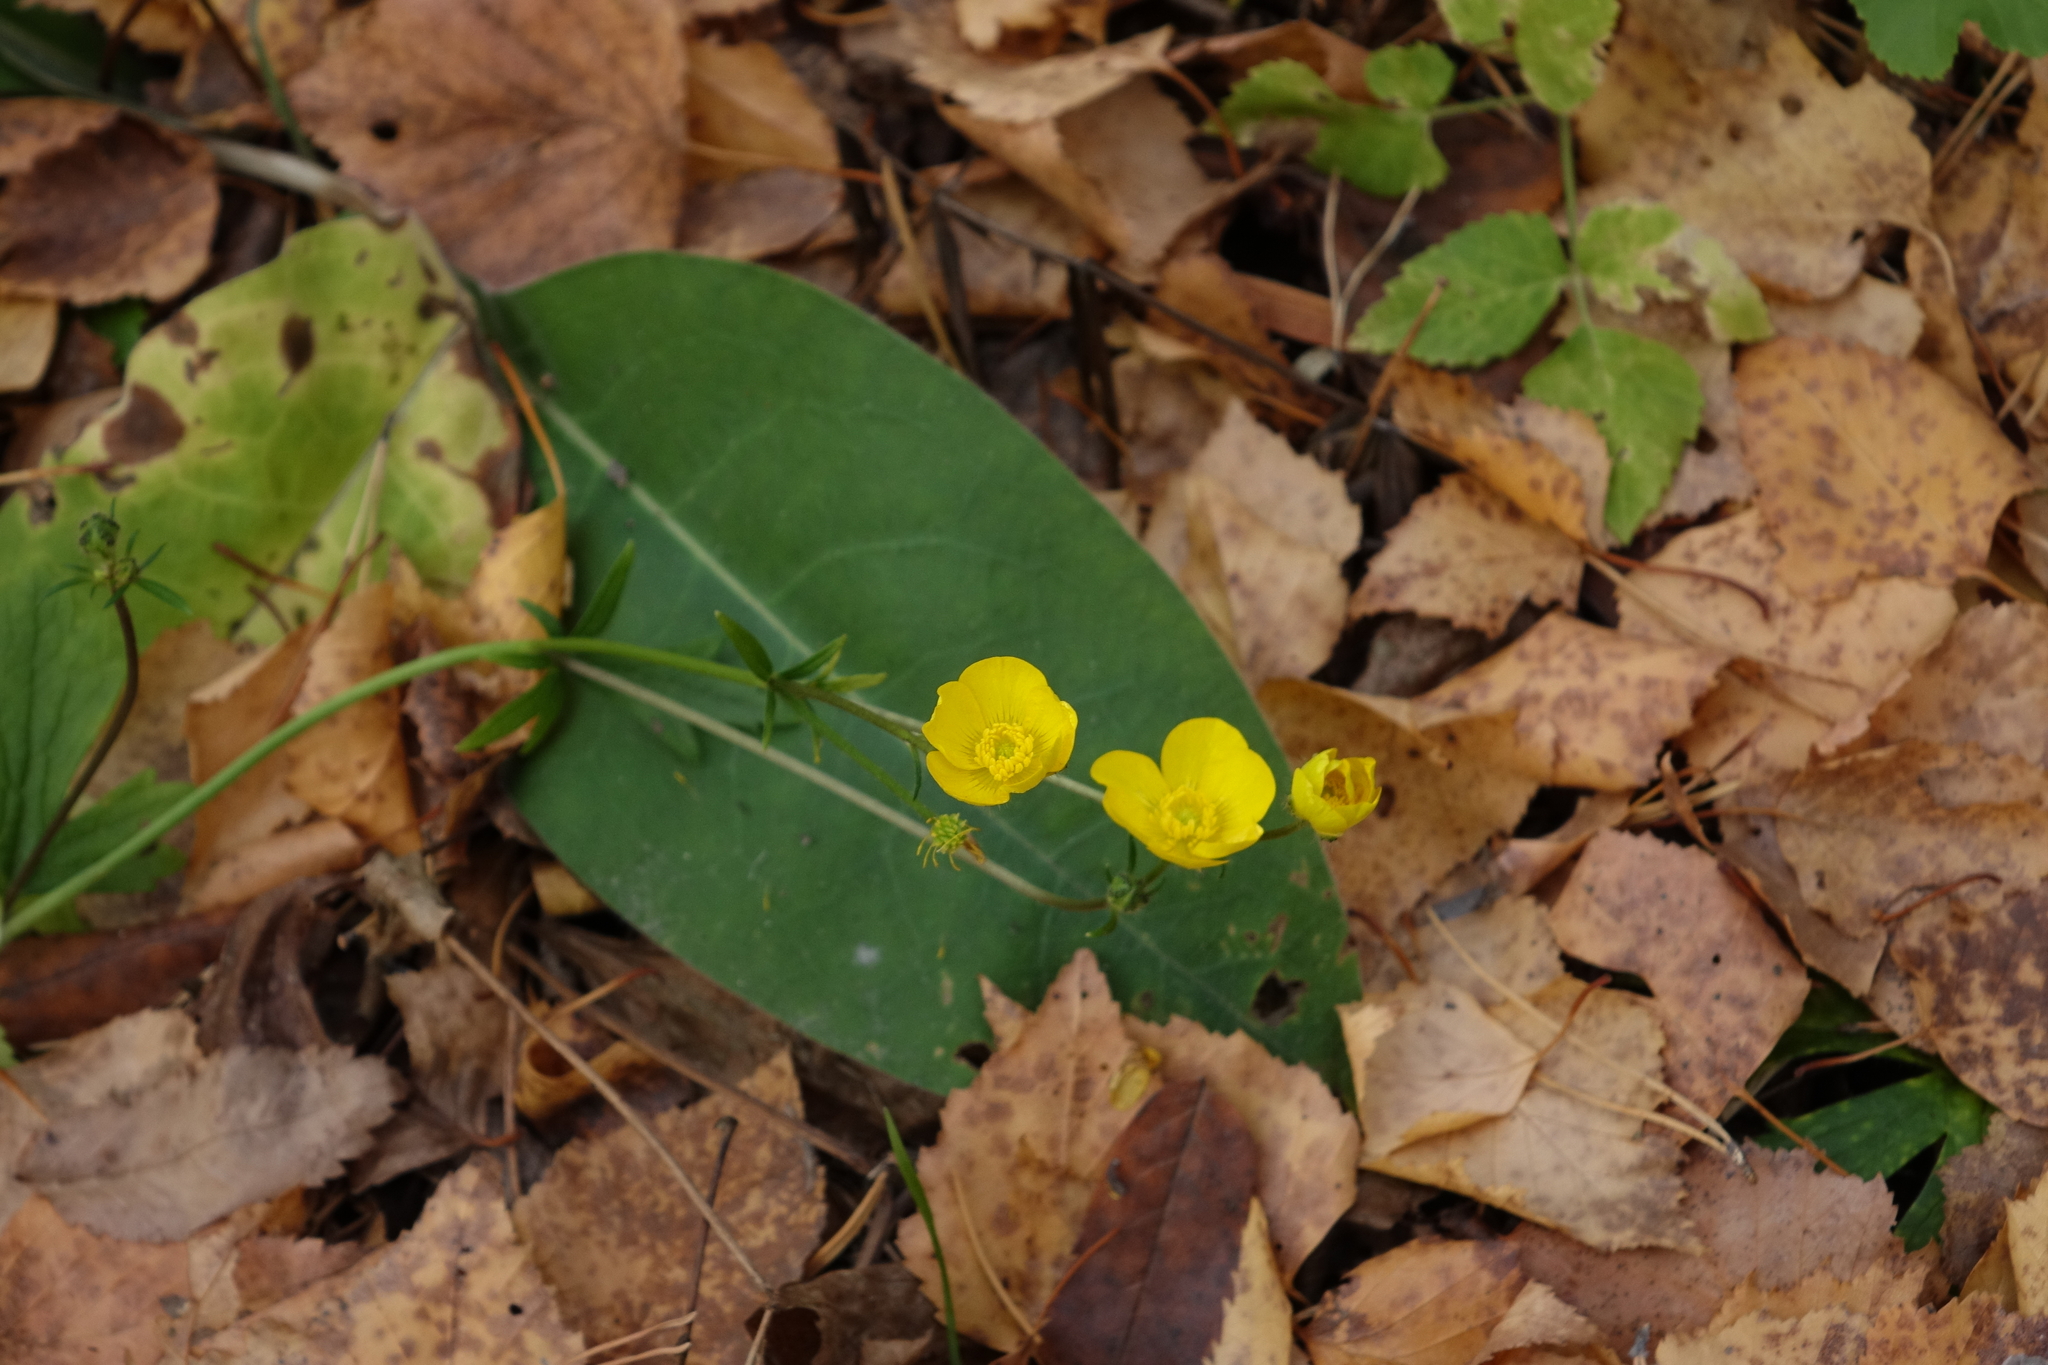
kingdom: Plantae
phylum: Tracheophyta
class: Magnoliopsida
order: Ranunculales
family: Ranunculaceae
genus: Ranunculus
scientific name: Ranunculus polyanthemos
